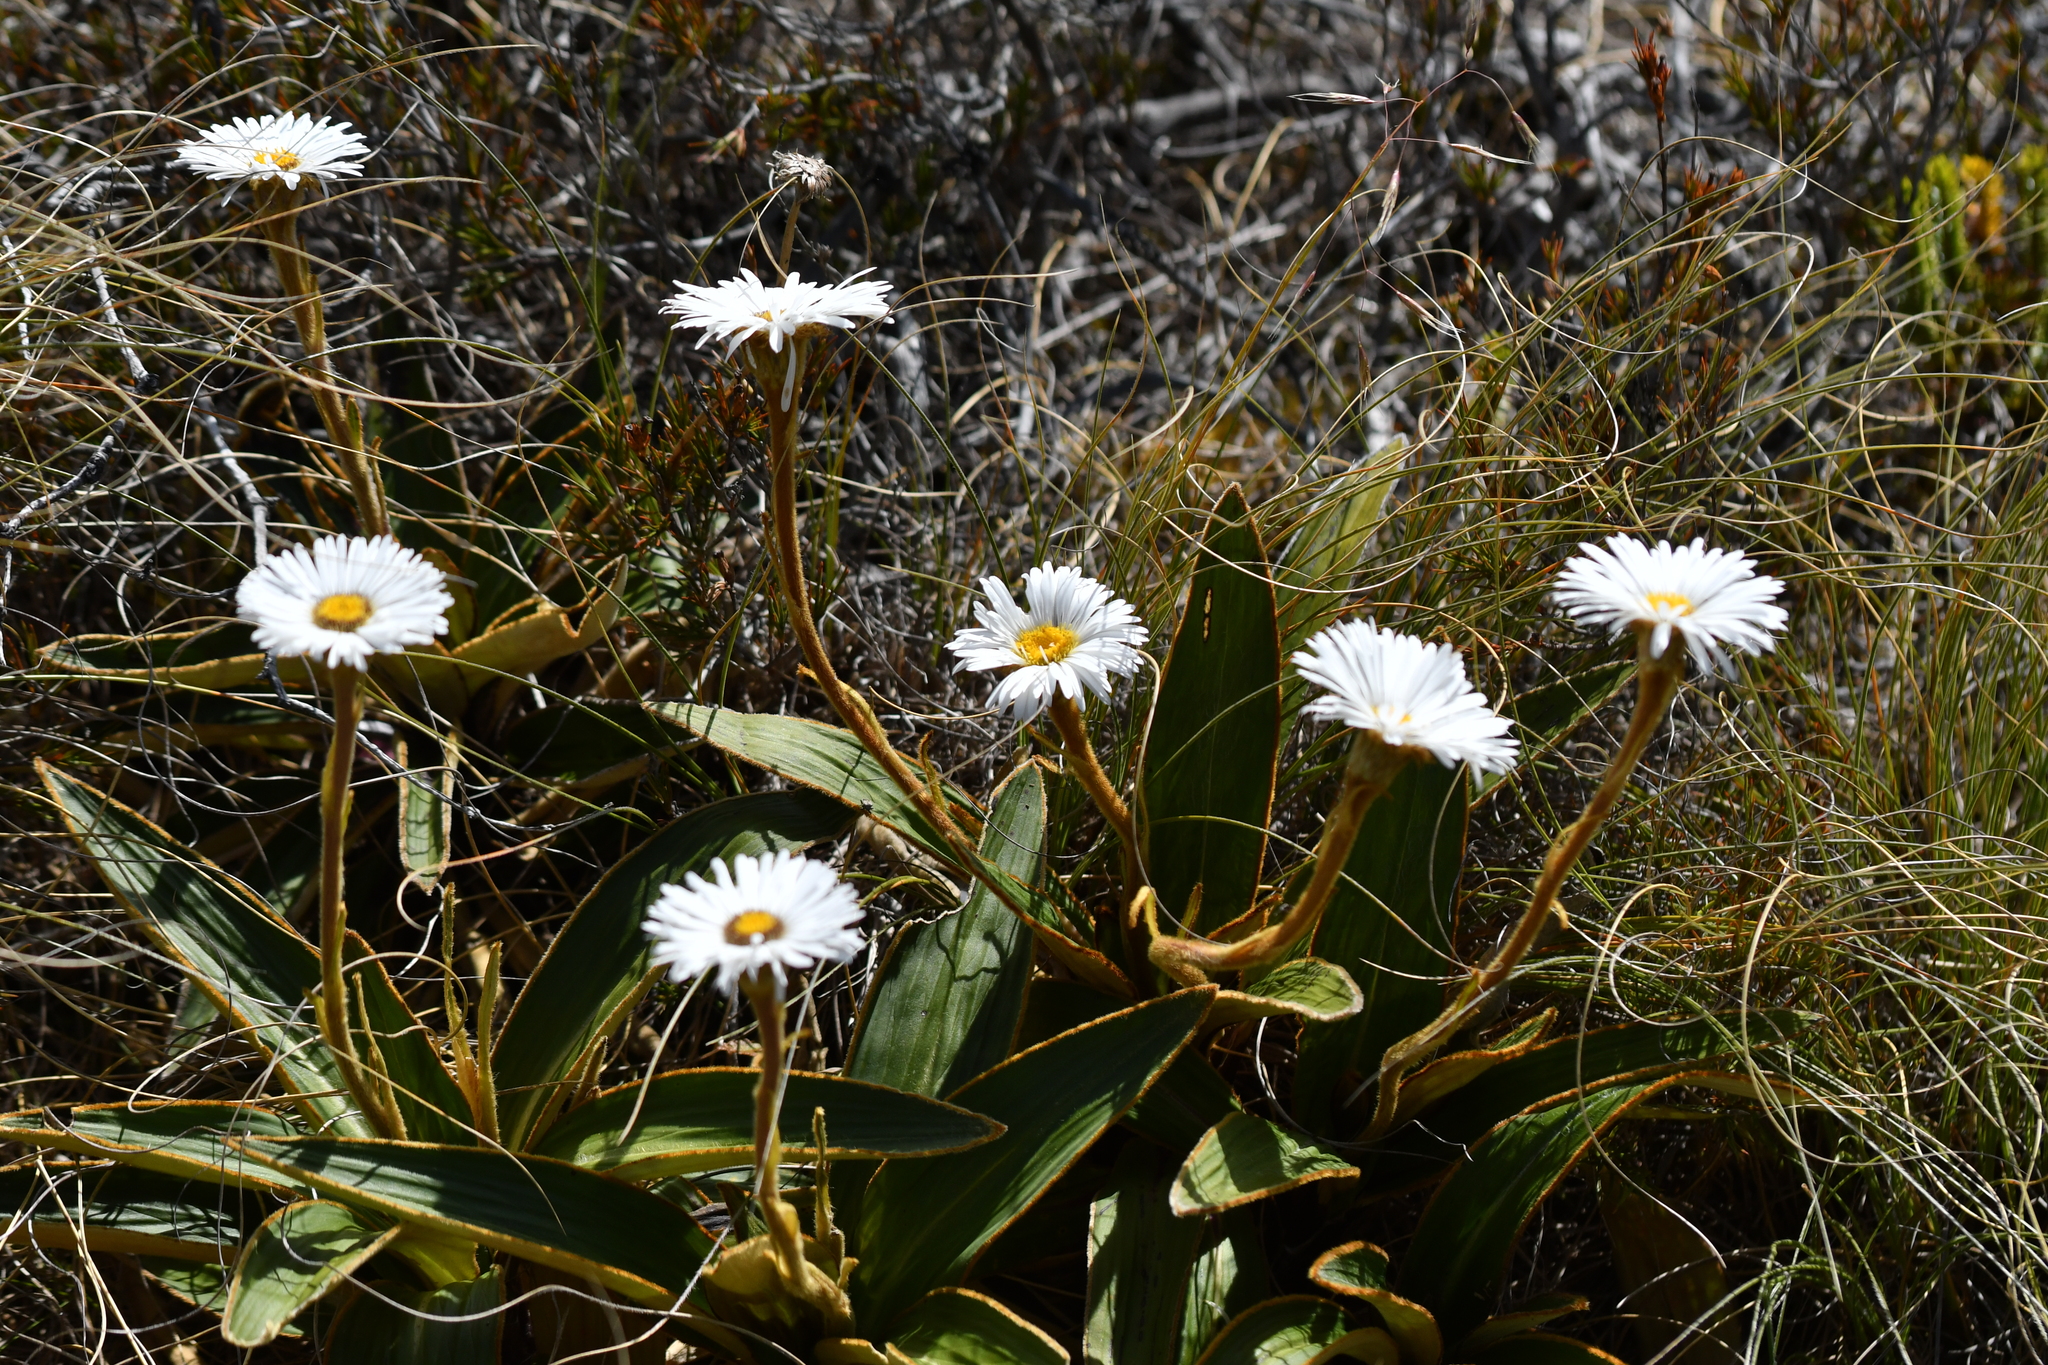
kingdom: Plantae
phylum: Tracheophyta
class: Magnoliopsida
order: Asterales
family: Asteraceae
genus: Celmisia
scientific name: Celmisia traversii
